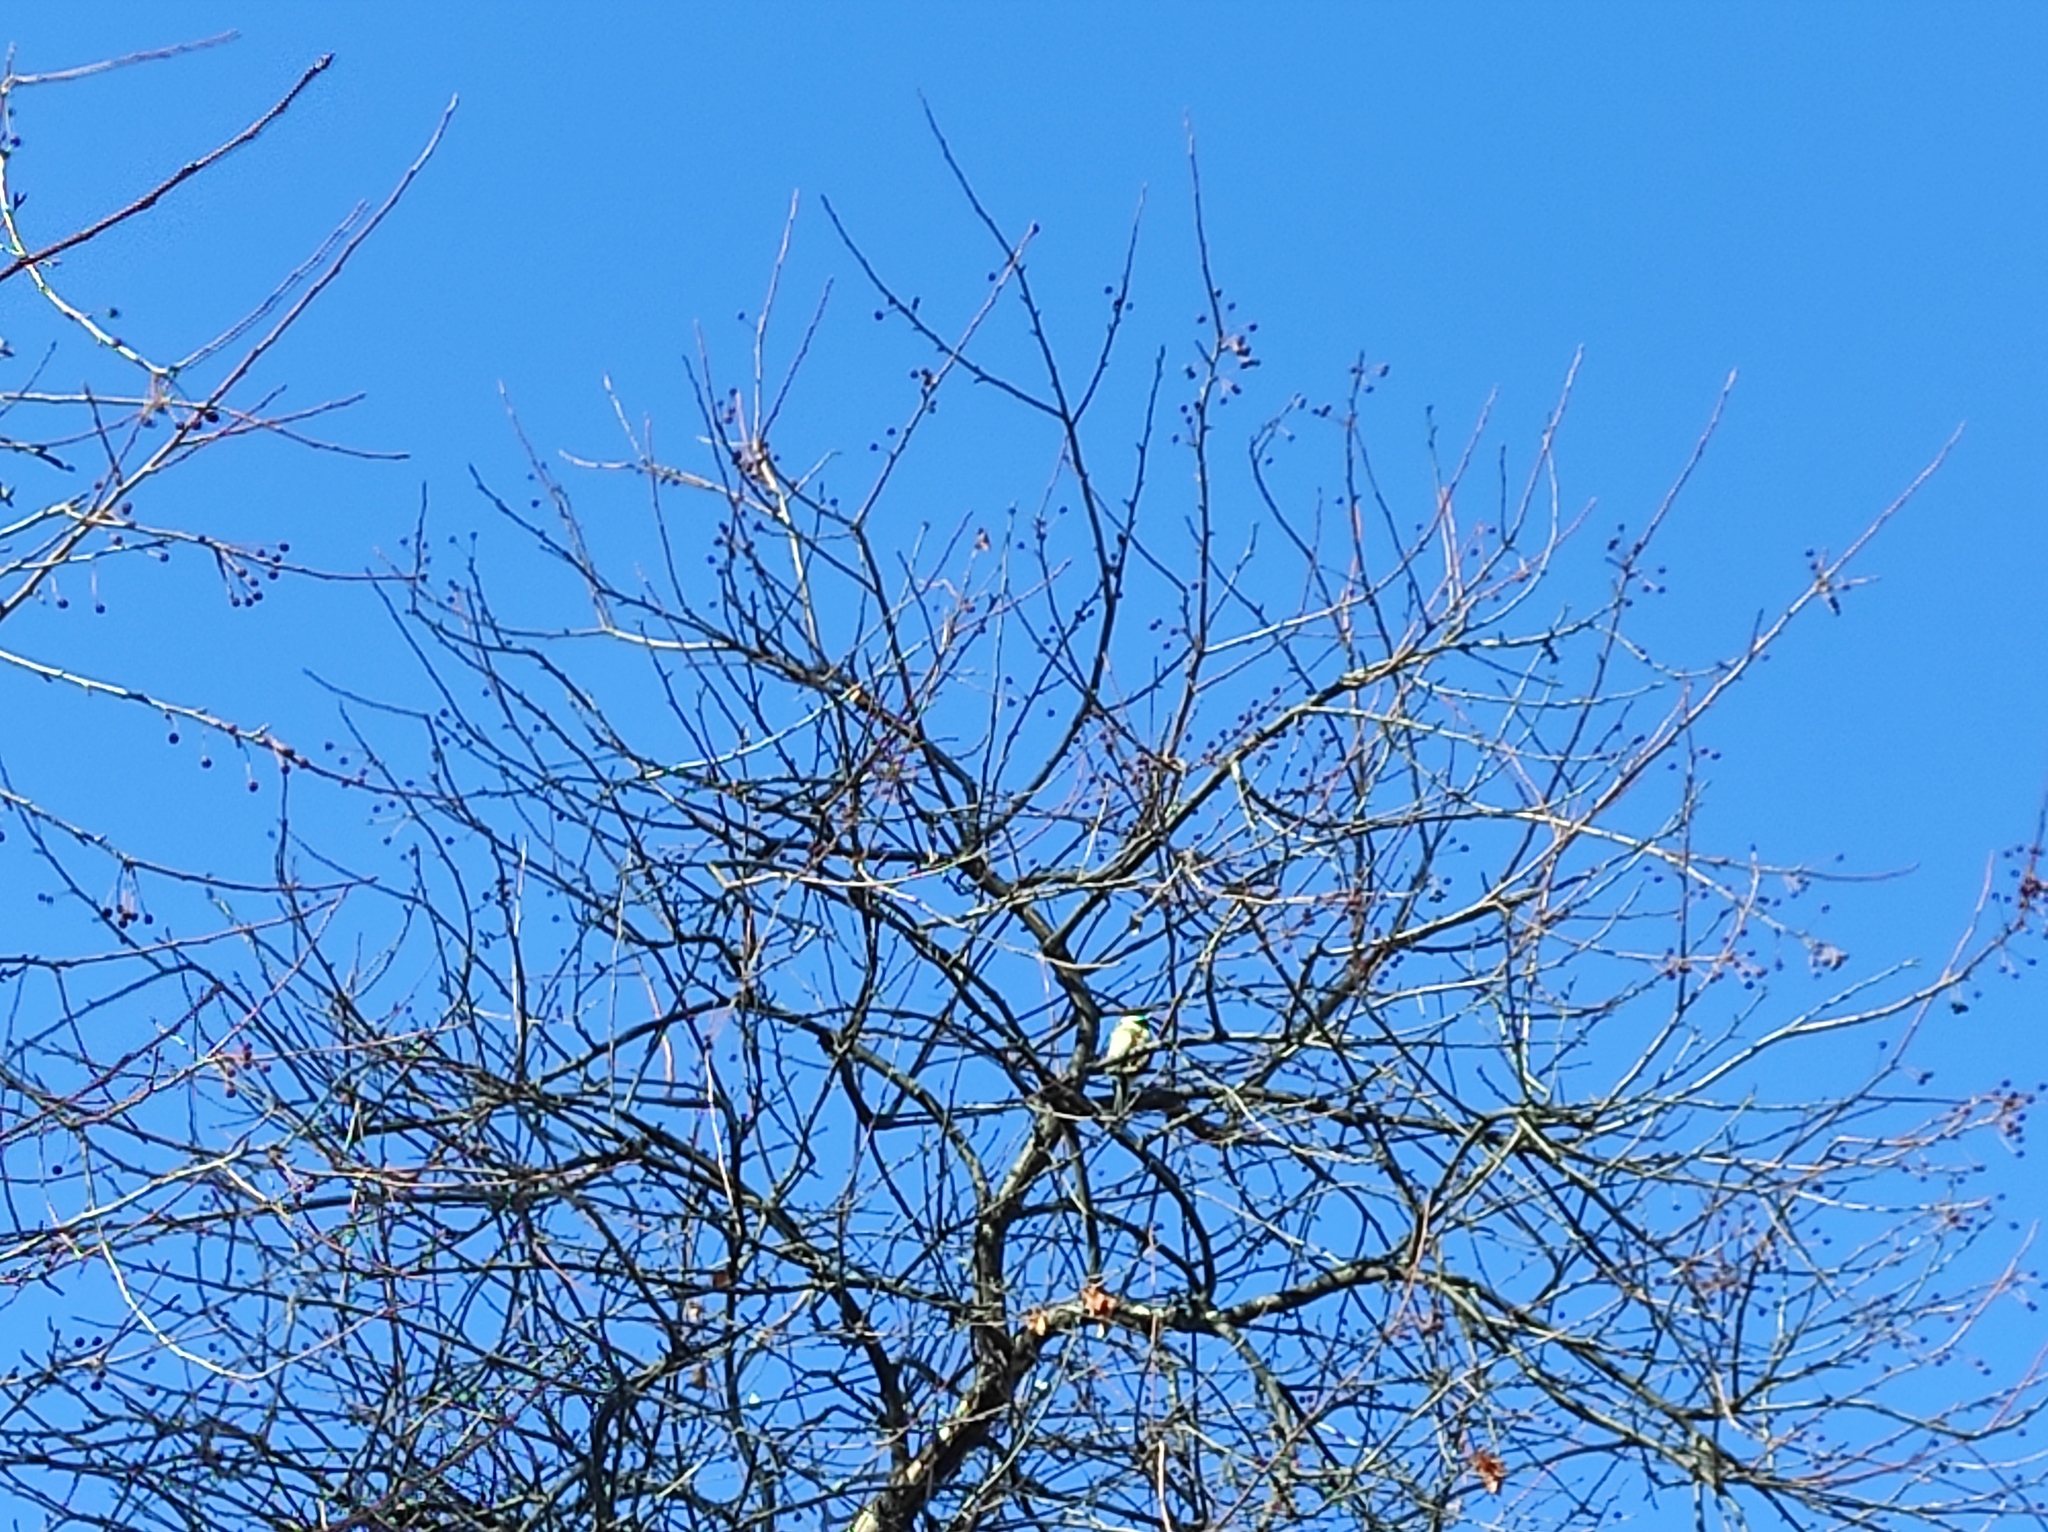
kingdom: Animalia
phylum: Chordata
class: Aves
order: Passeriformes
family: Paridae
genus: Parus
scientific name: Parus major
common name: Great tit
